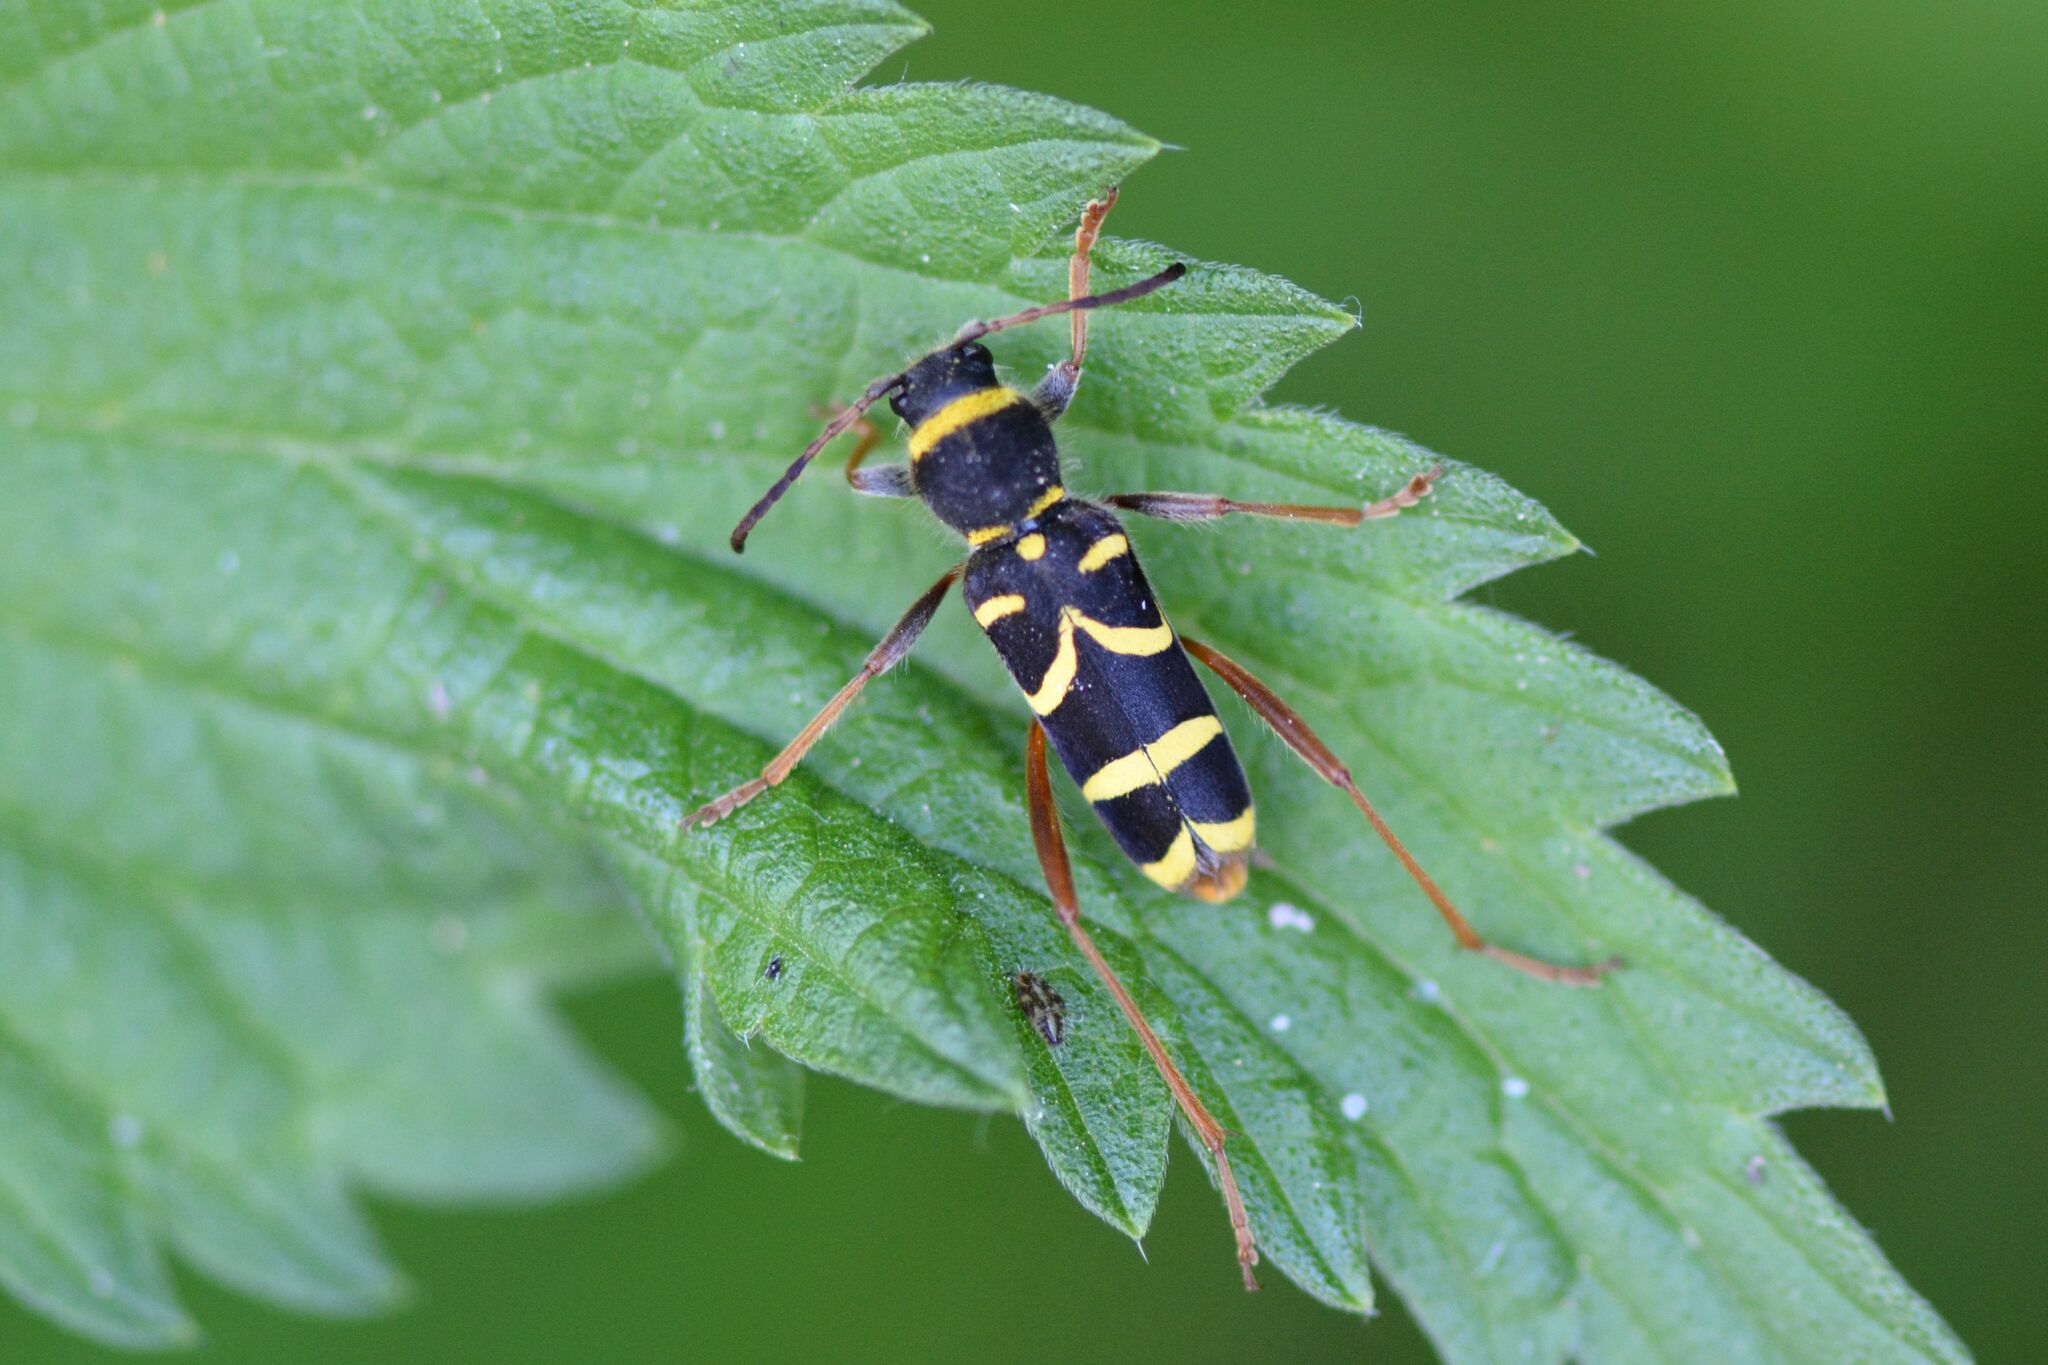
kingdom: Animalia
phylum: Arthropoda
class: Insecta
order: Coleoptera
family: Cerambycidae
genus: Clytus
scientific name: Clytus arietis
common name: Wasp beetle
